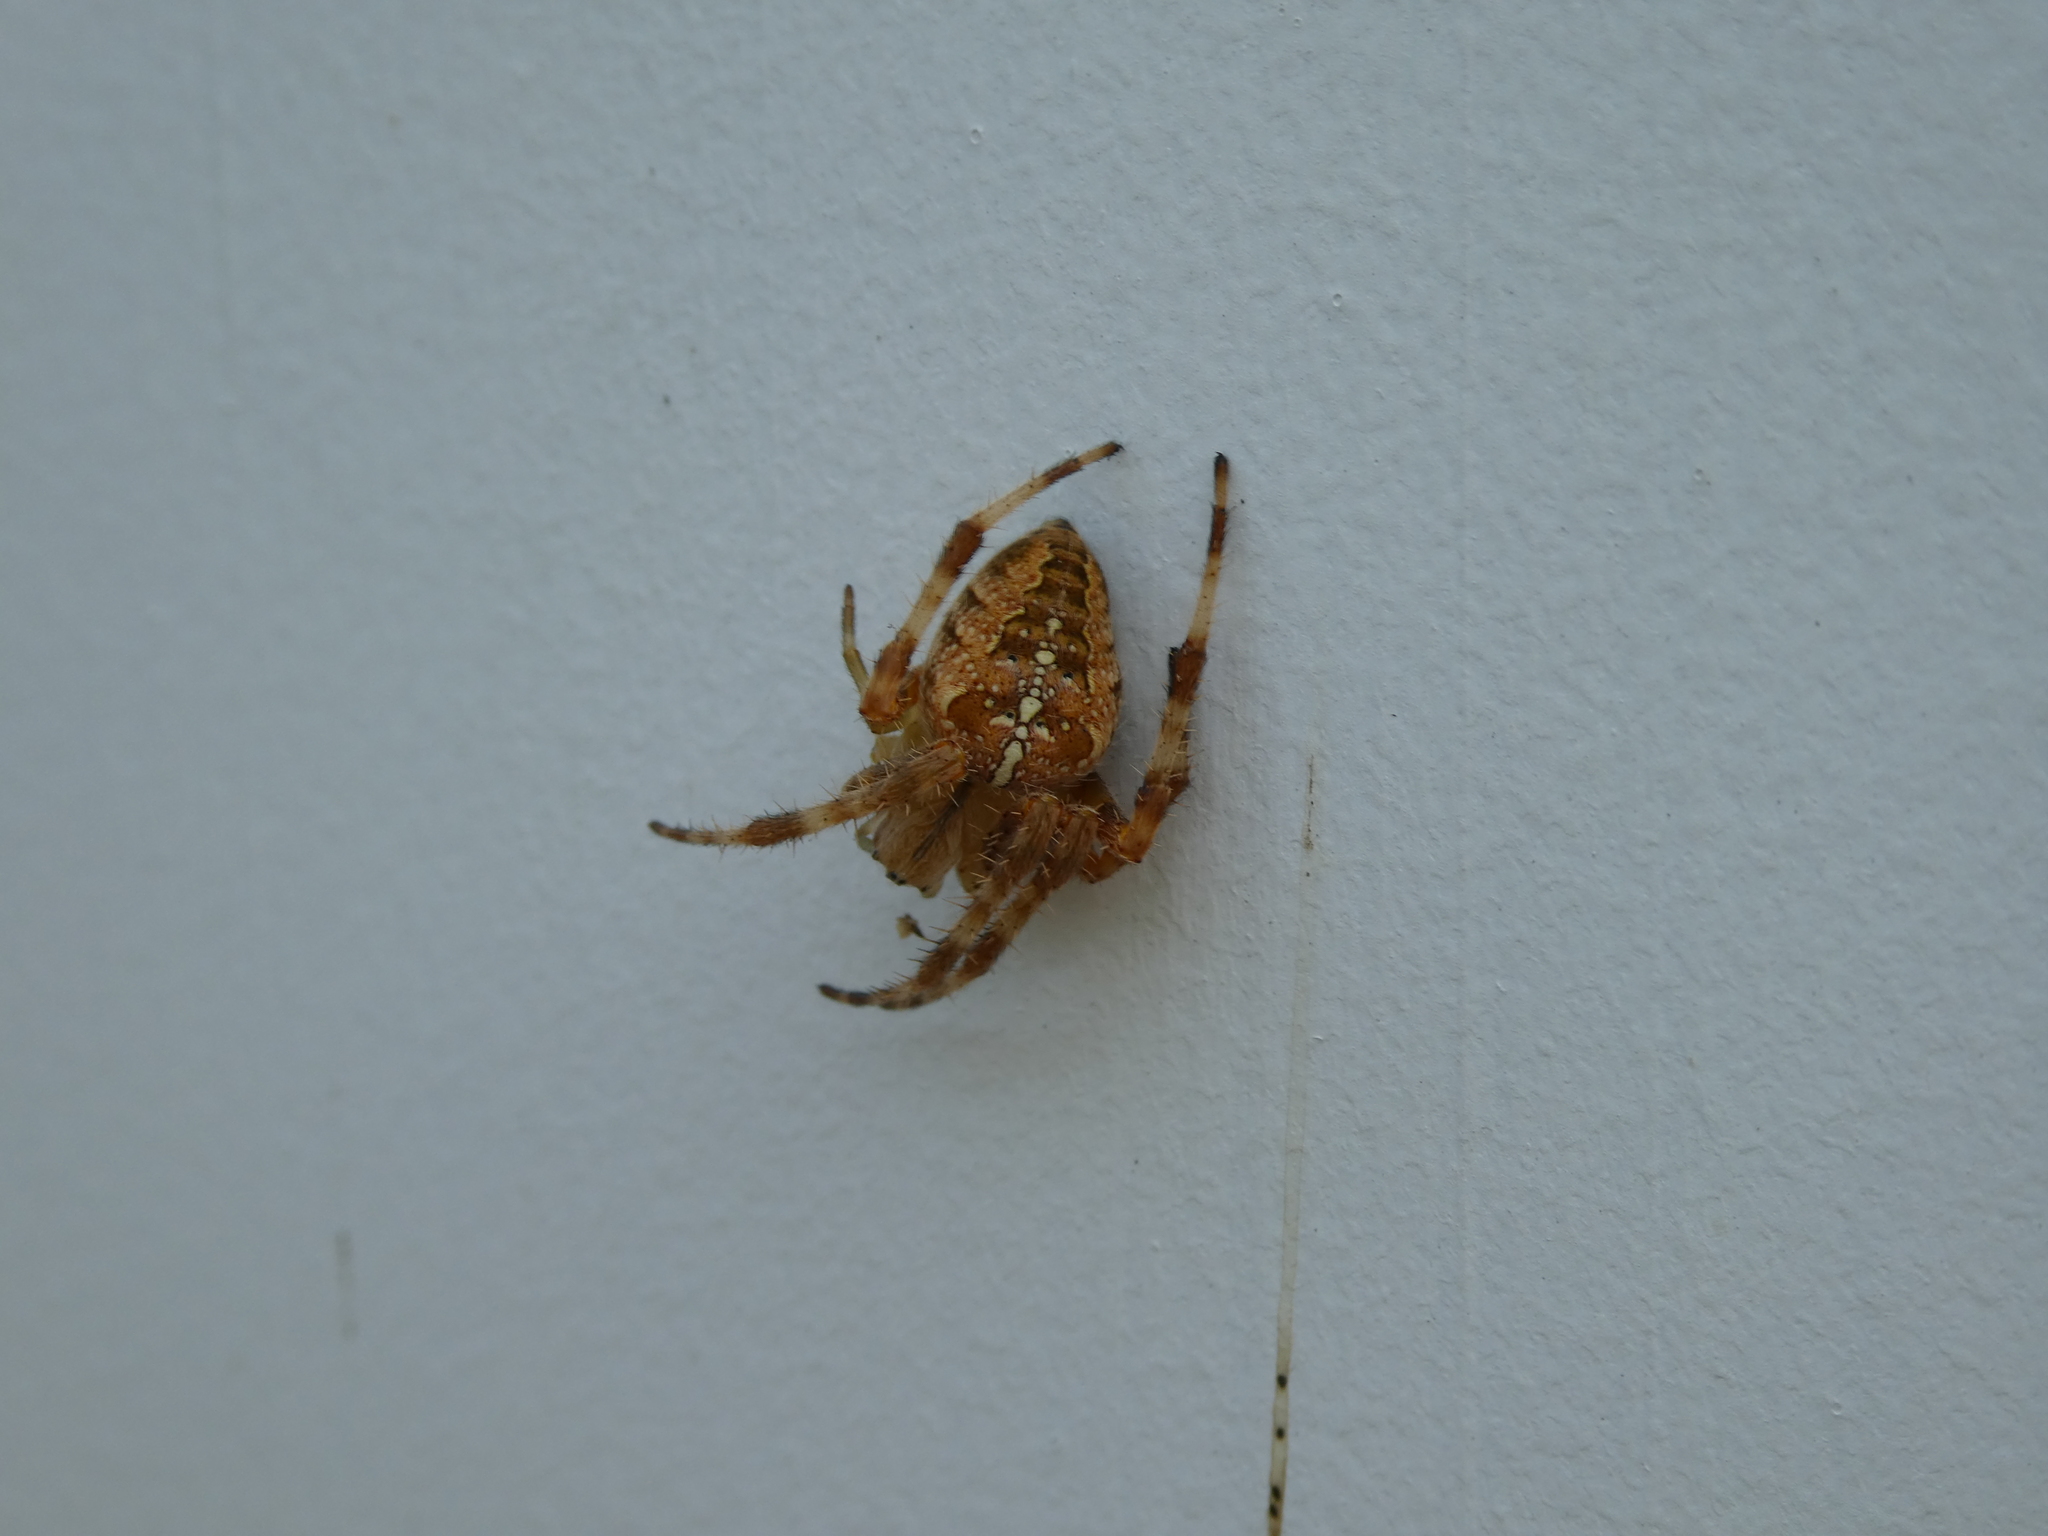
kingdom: Animalia
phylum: Arthropoda
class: Arachnida
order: Araneae
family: Araneidae
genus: Araneus
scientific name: Araneus diadematus
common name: Cross orbweaver
